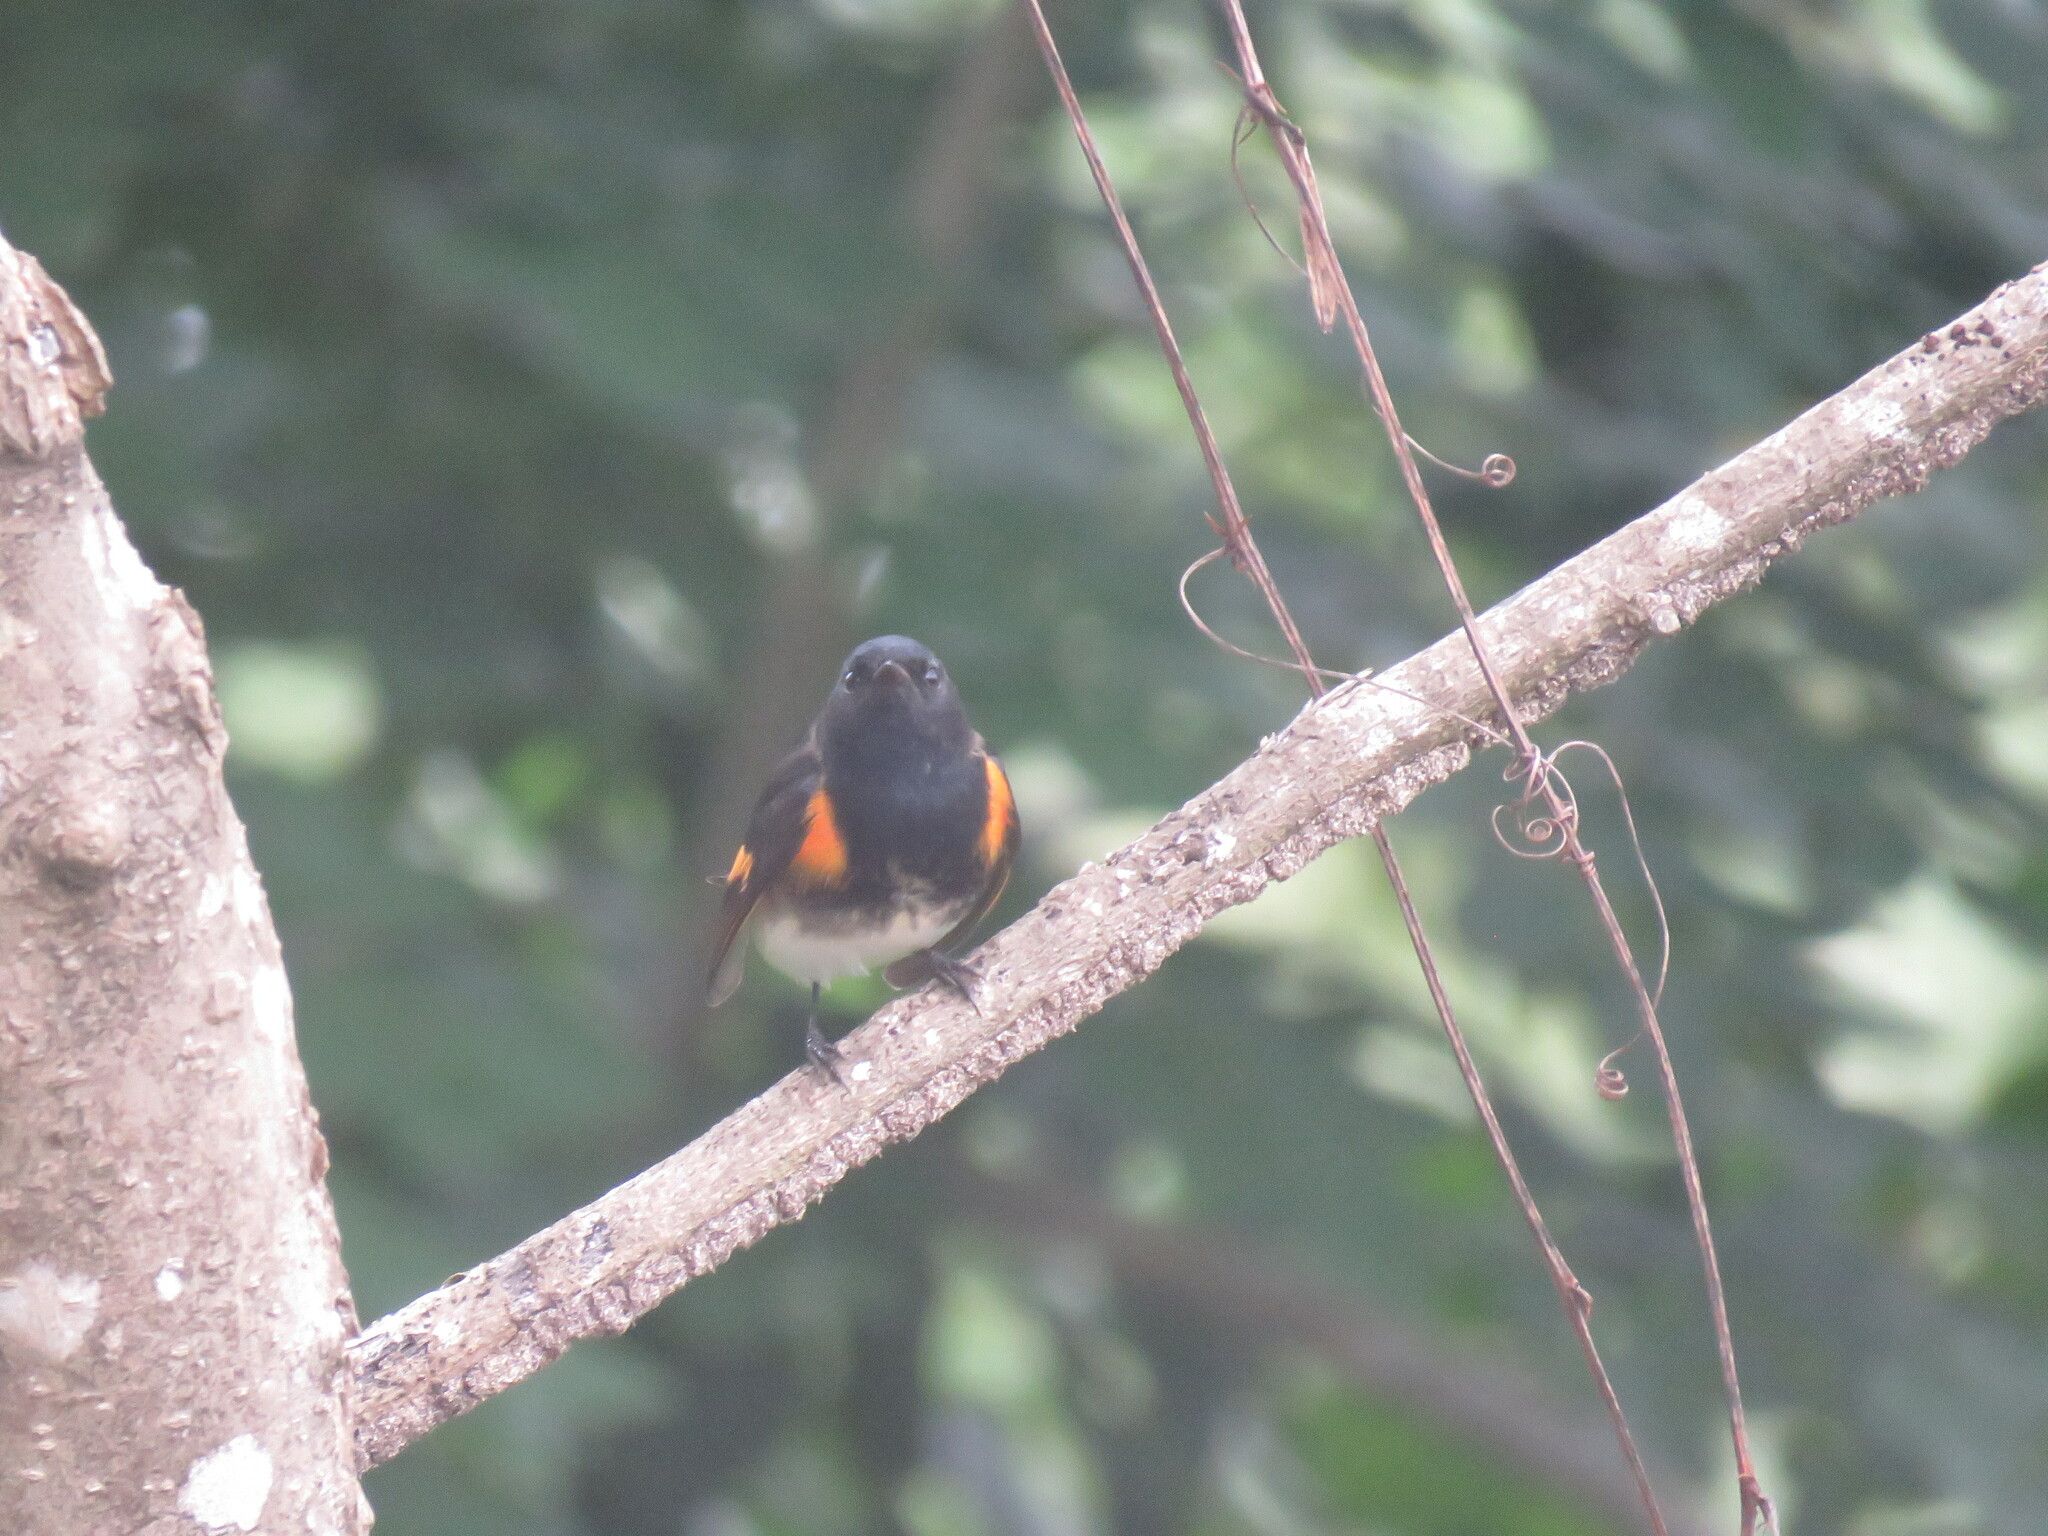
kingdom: Animalia
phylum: Chordata
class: Aves
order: Passeriformes
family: Parulidae
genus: Setophaga
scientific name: Setophaga ruticilla
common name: American redstart
